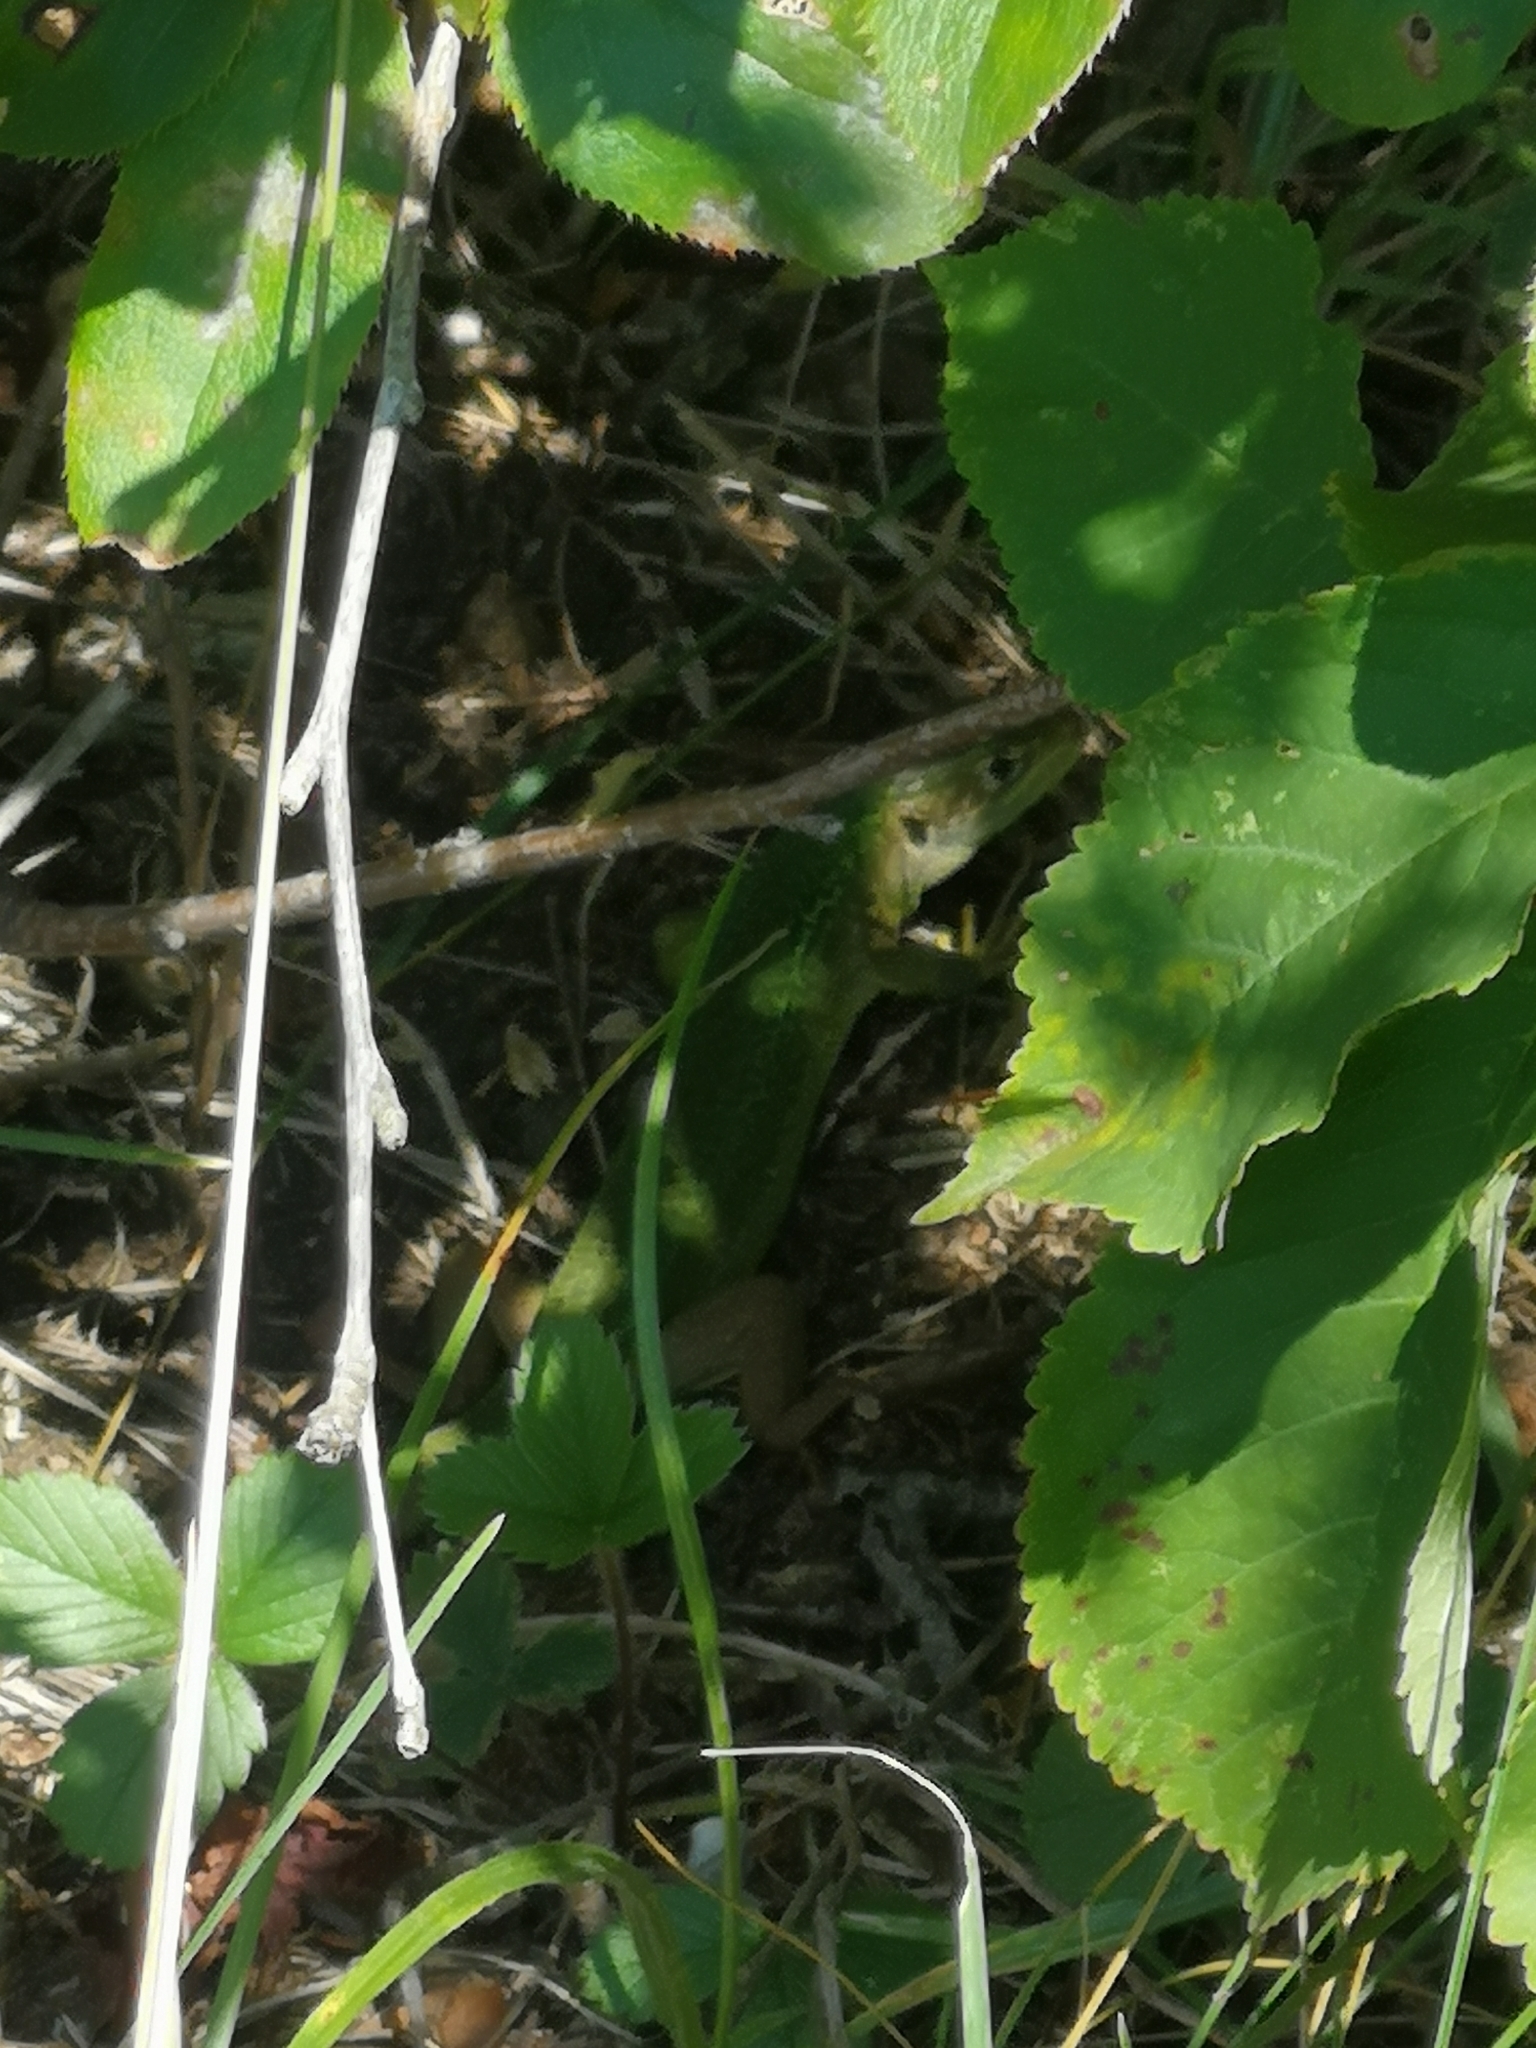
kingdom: Animalia
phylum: Chordata
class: Squamata
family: Lacertidae
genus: Lacerta
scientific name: Lacerta bilineata
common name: Western green lizard
